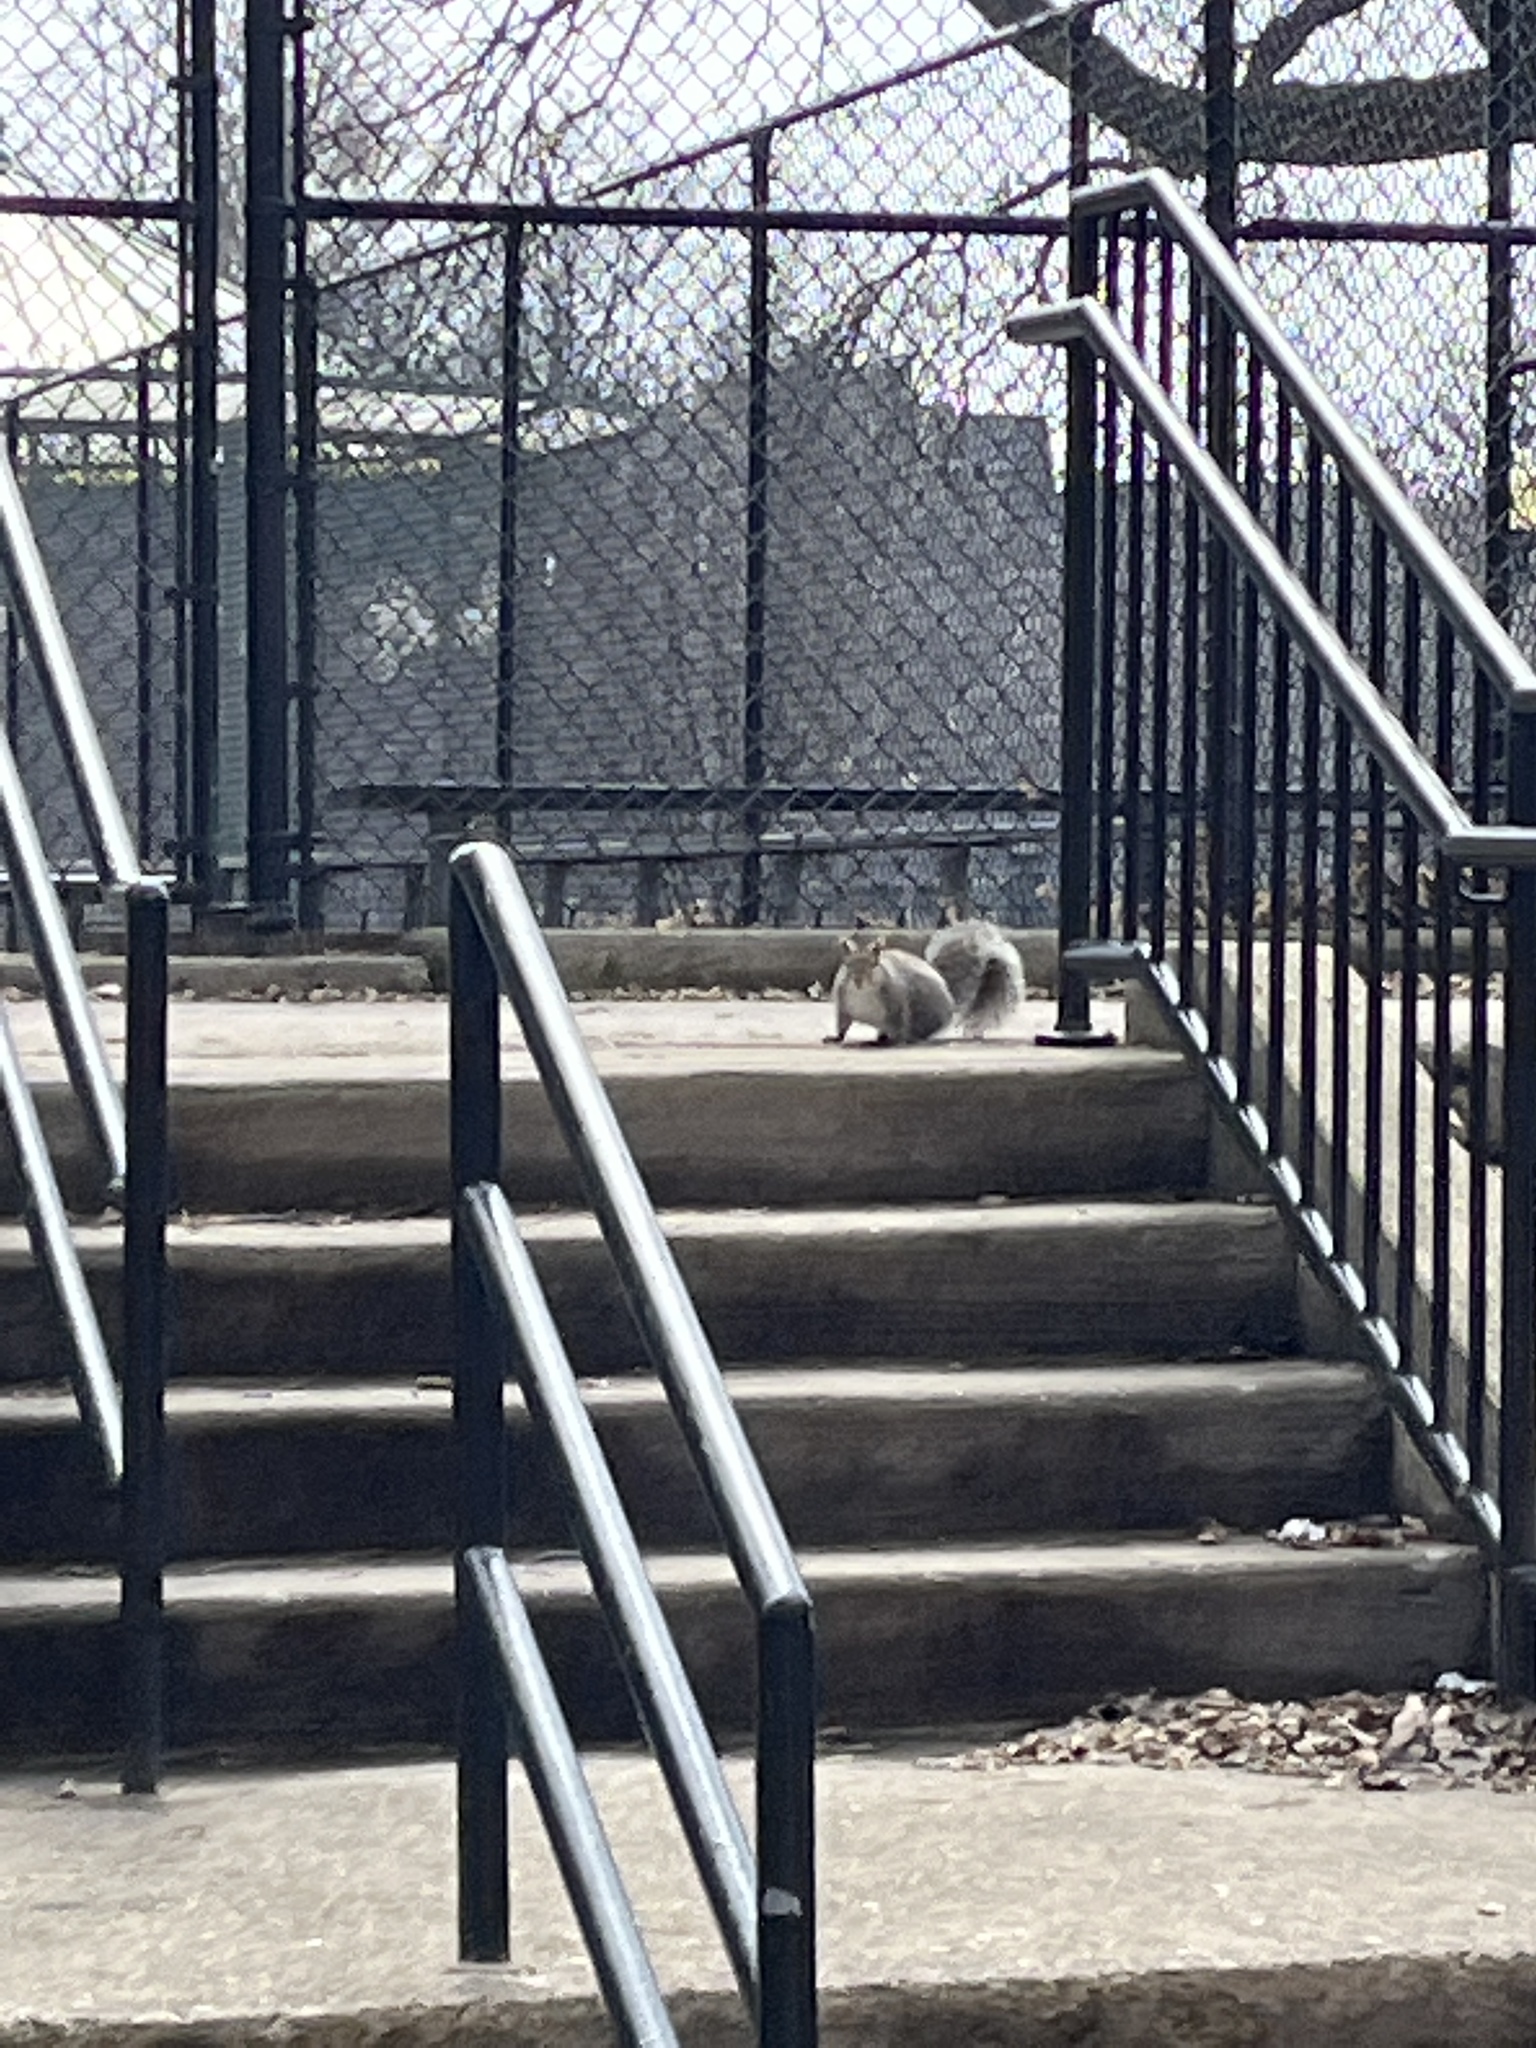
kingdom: Animalia
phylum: Chordata
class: Mammalia
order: Rodentia
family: Sciuridae
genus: Sciurus
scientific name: Sciurus carolinensis
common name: Eastern gray squirrel
